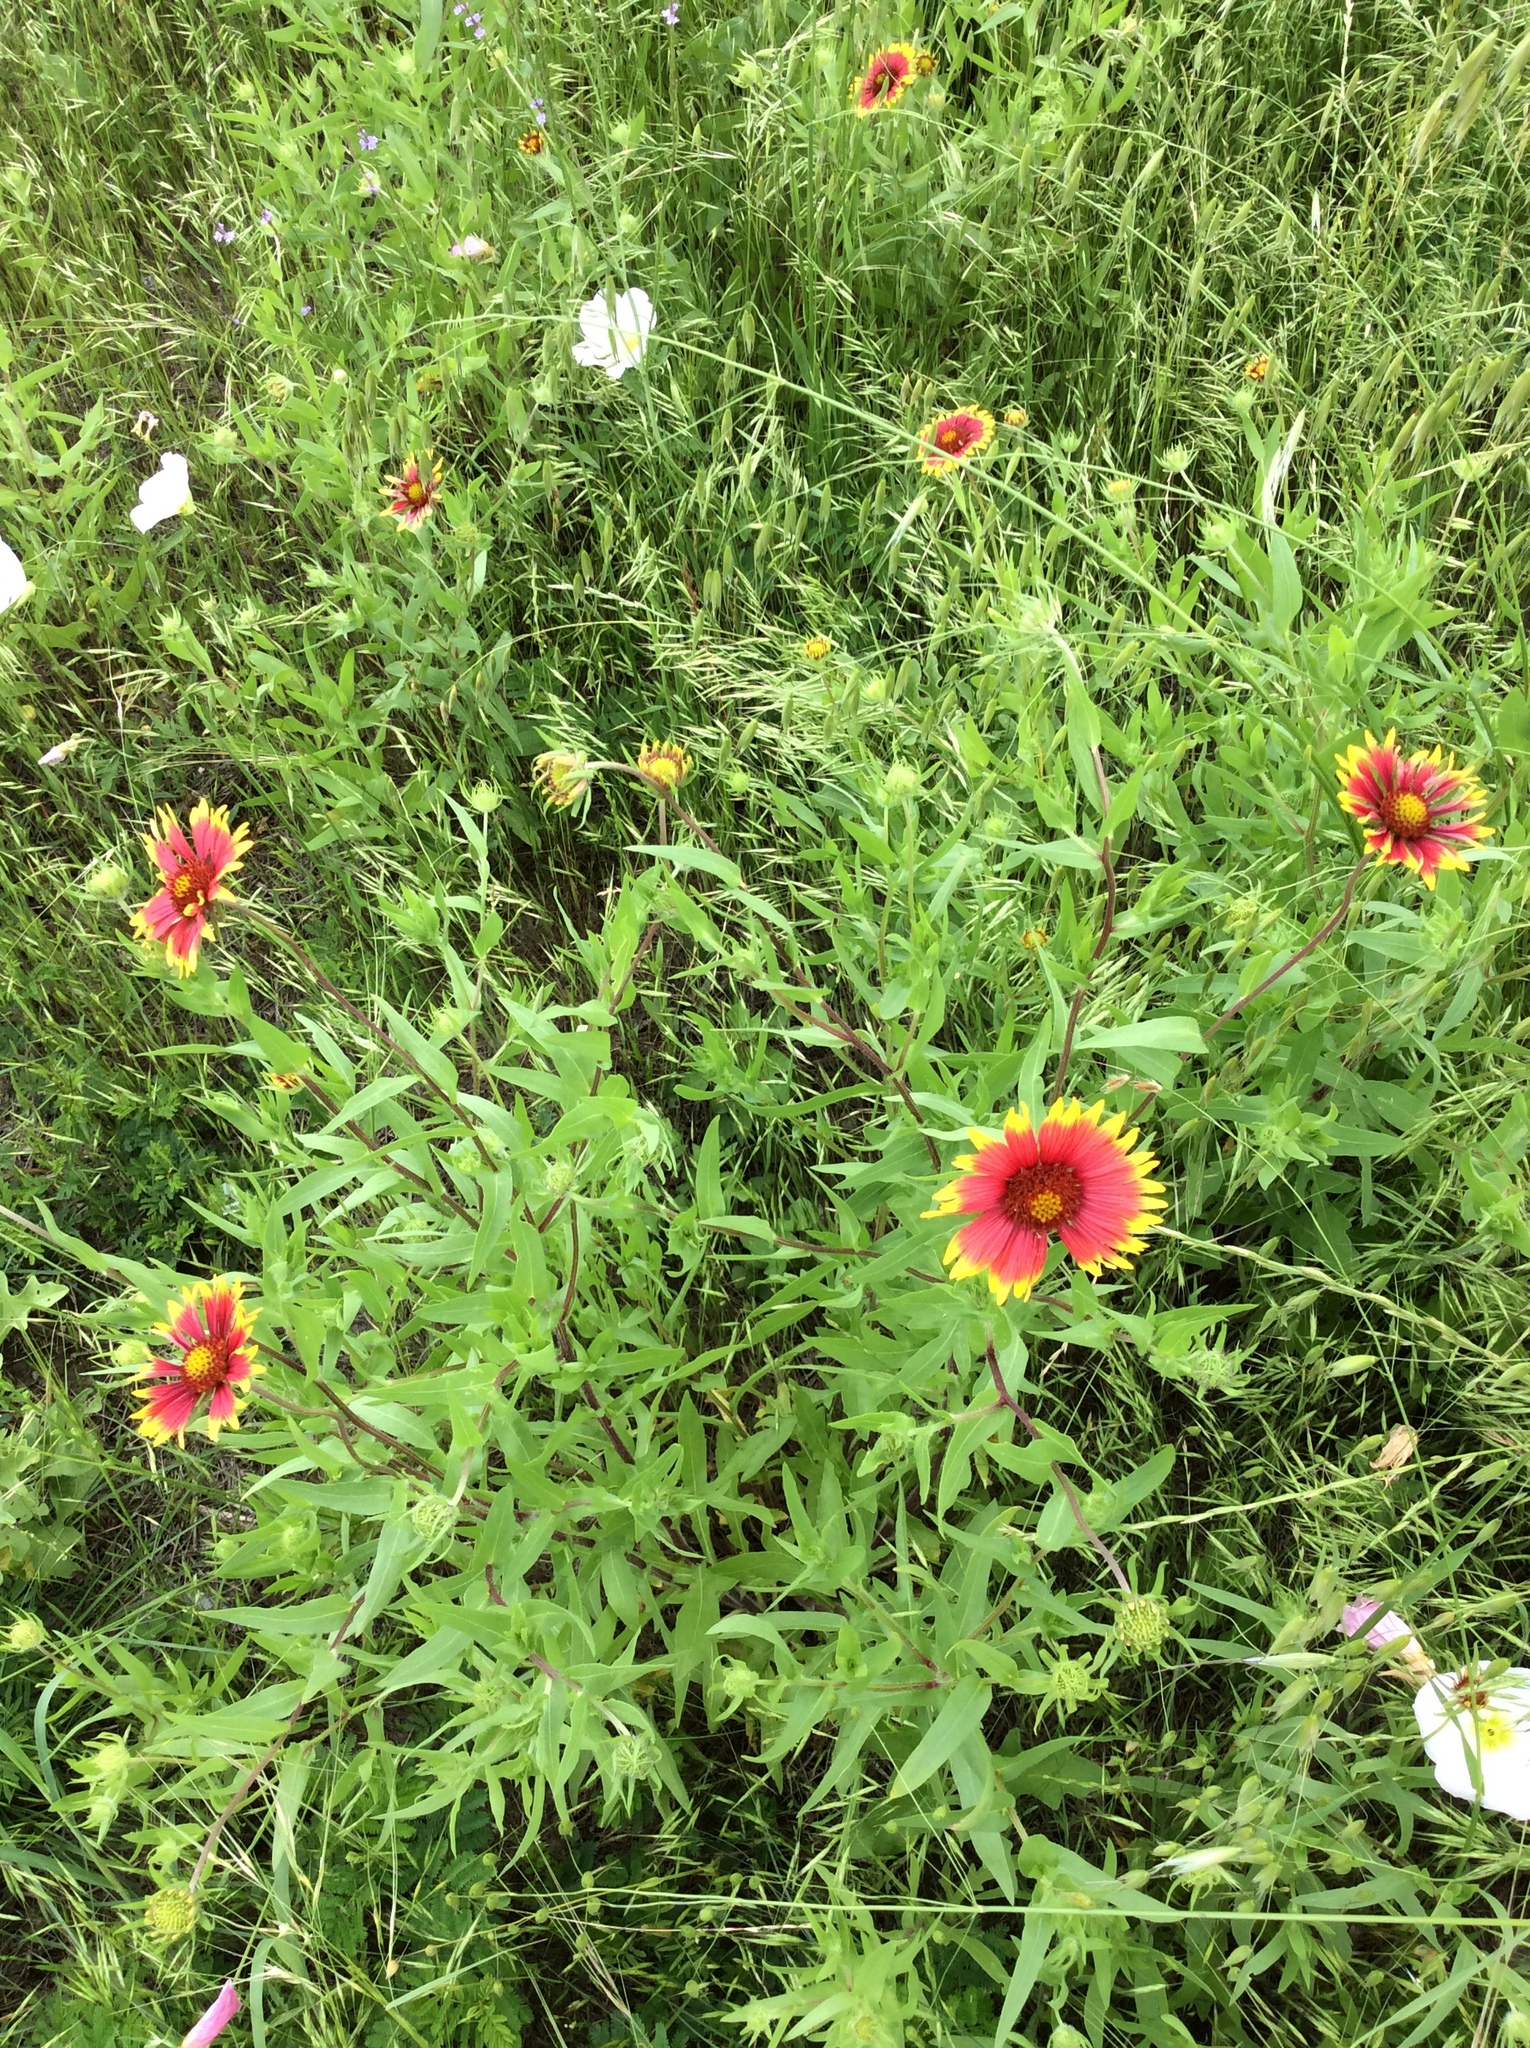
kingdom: Plantae
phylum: Tracheophyta
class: Magnoliopsida
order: Asterales
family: Asteraceae
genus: Gaillardia
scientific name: Gaillardia pulchella
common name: Firewheel
